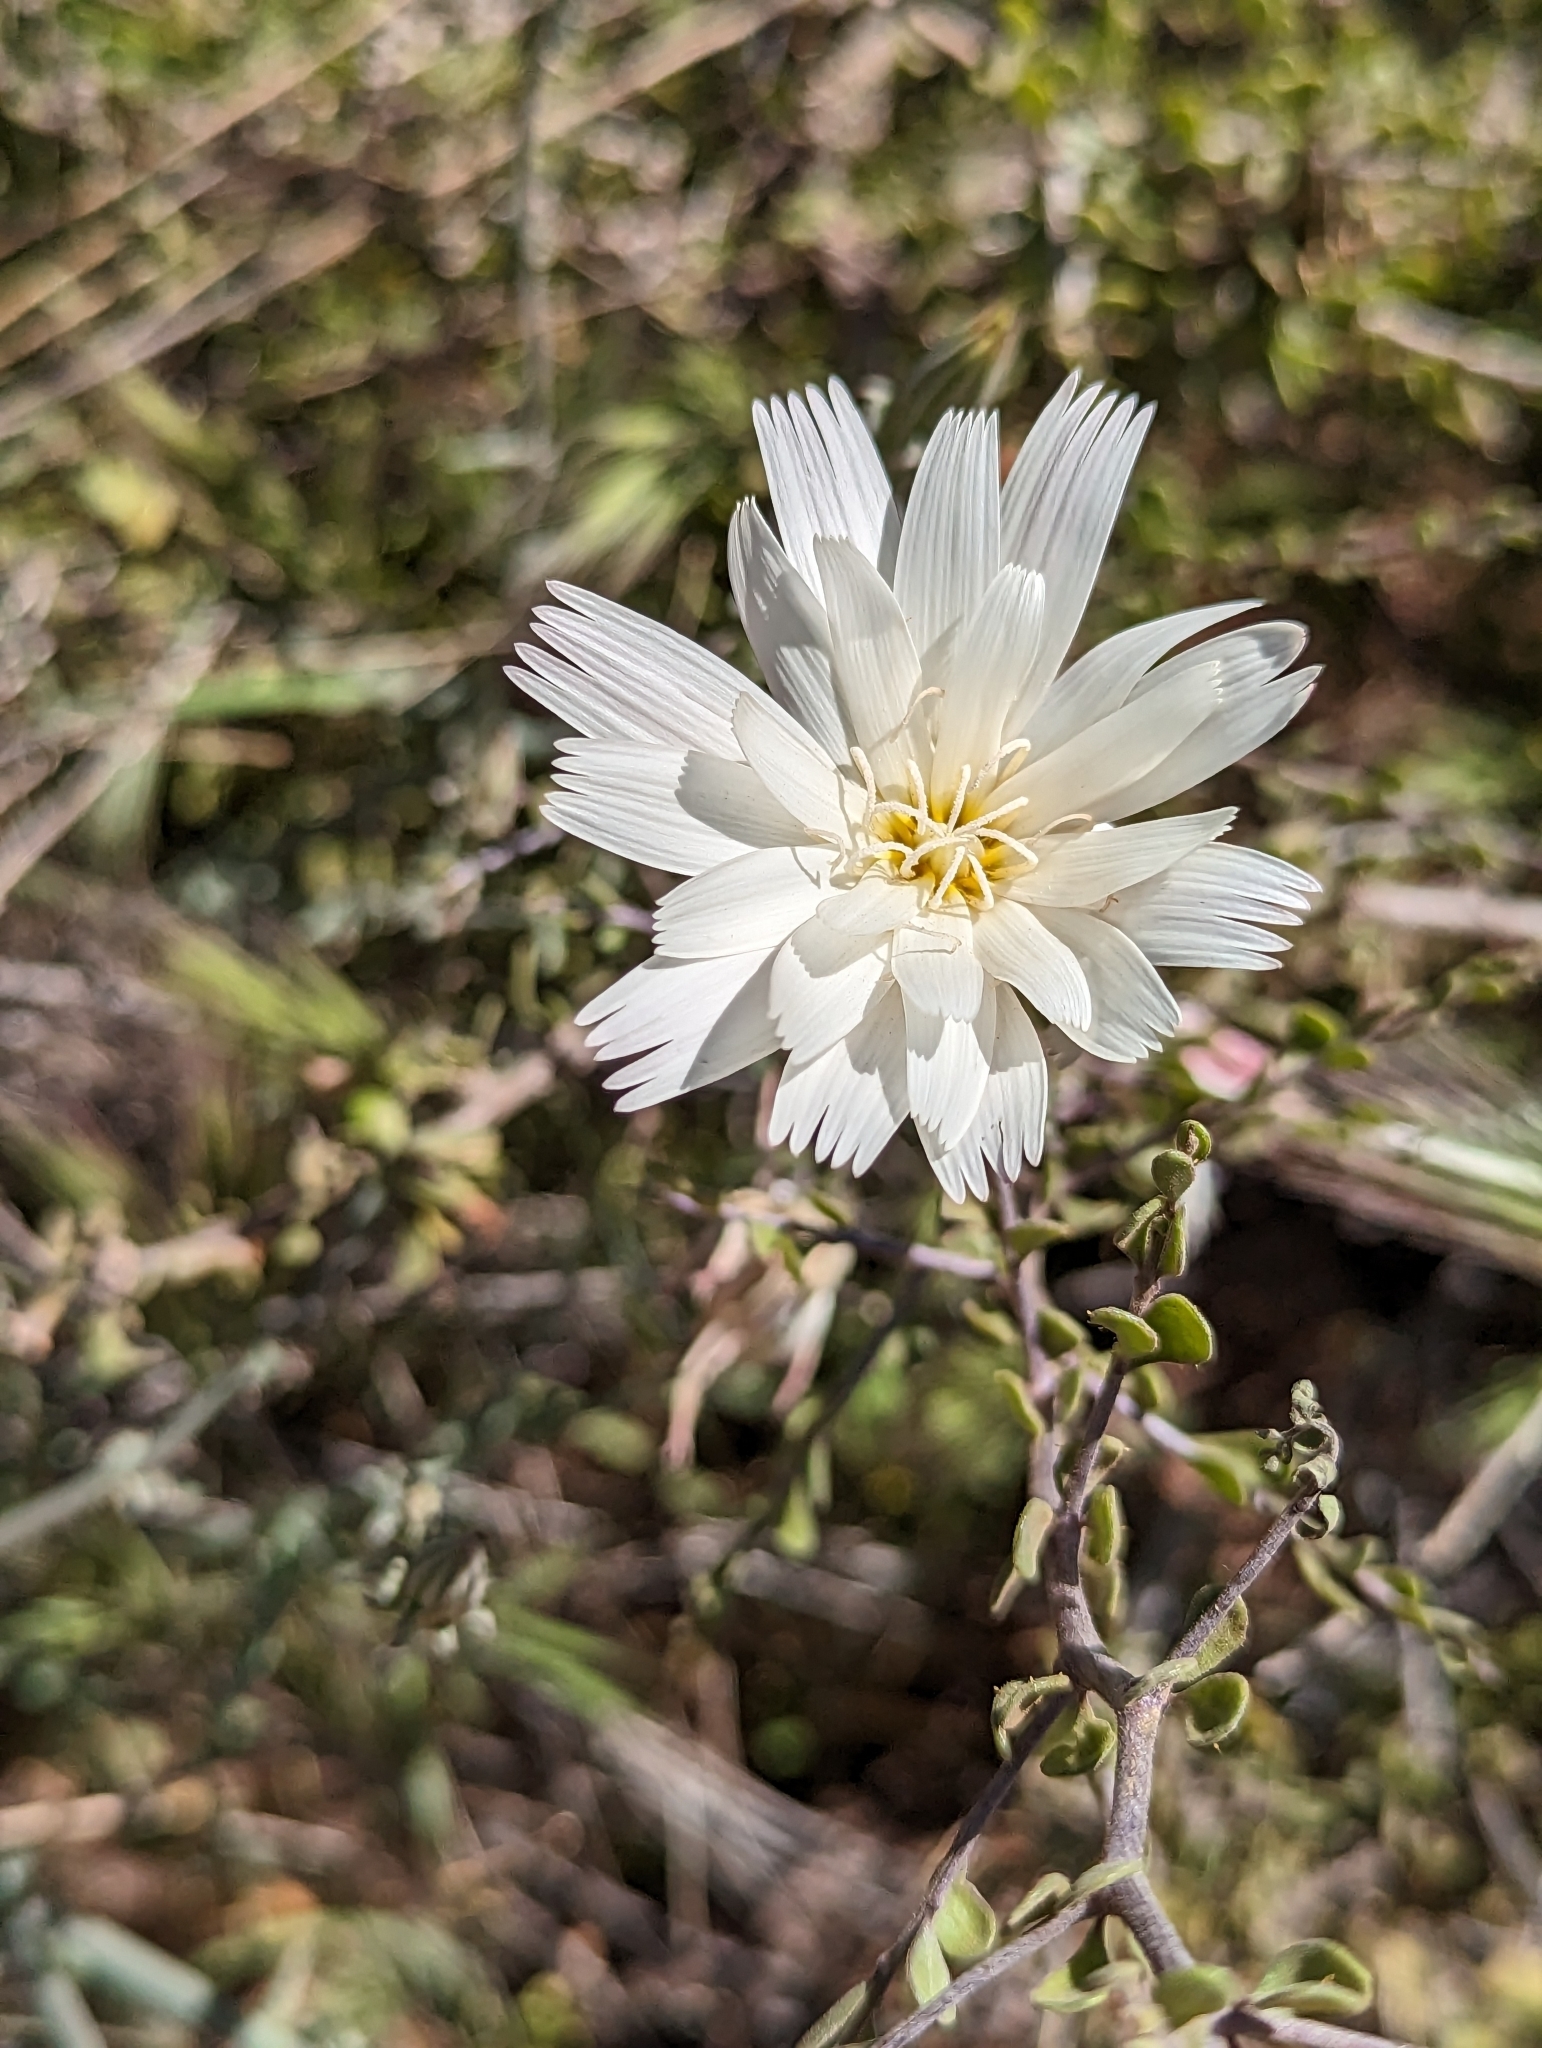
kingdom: Plantae
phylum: Tracheophyta
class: Magnoliopsida
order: Asterales
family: Asteraceae
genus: Rafinesquia
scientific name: Rafinesquia neomexicana
